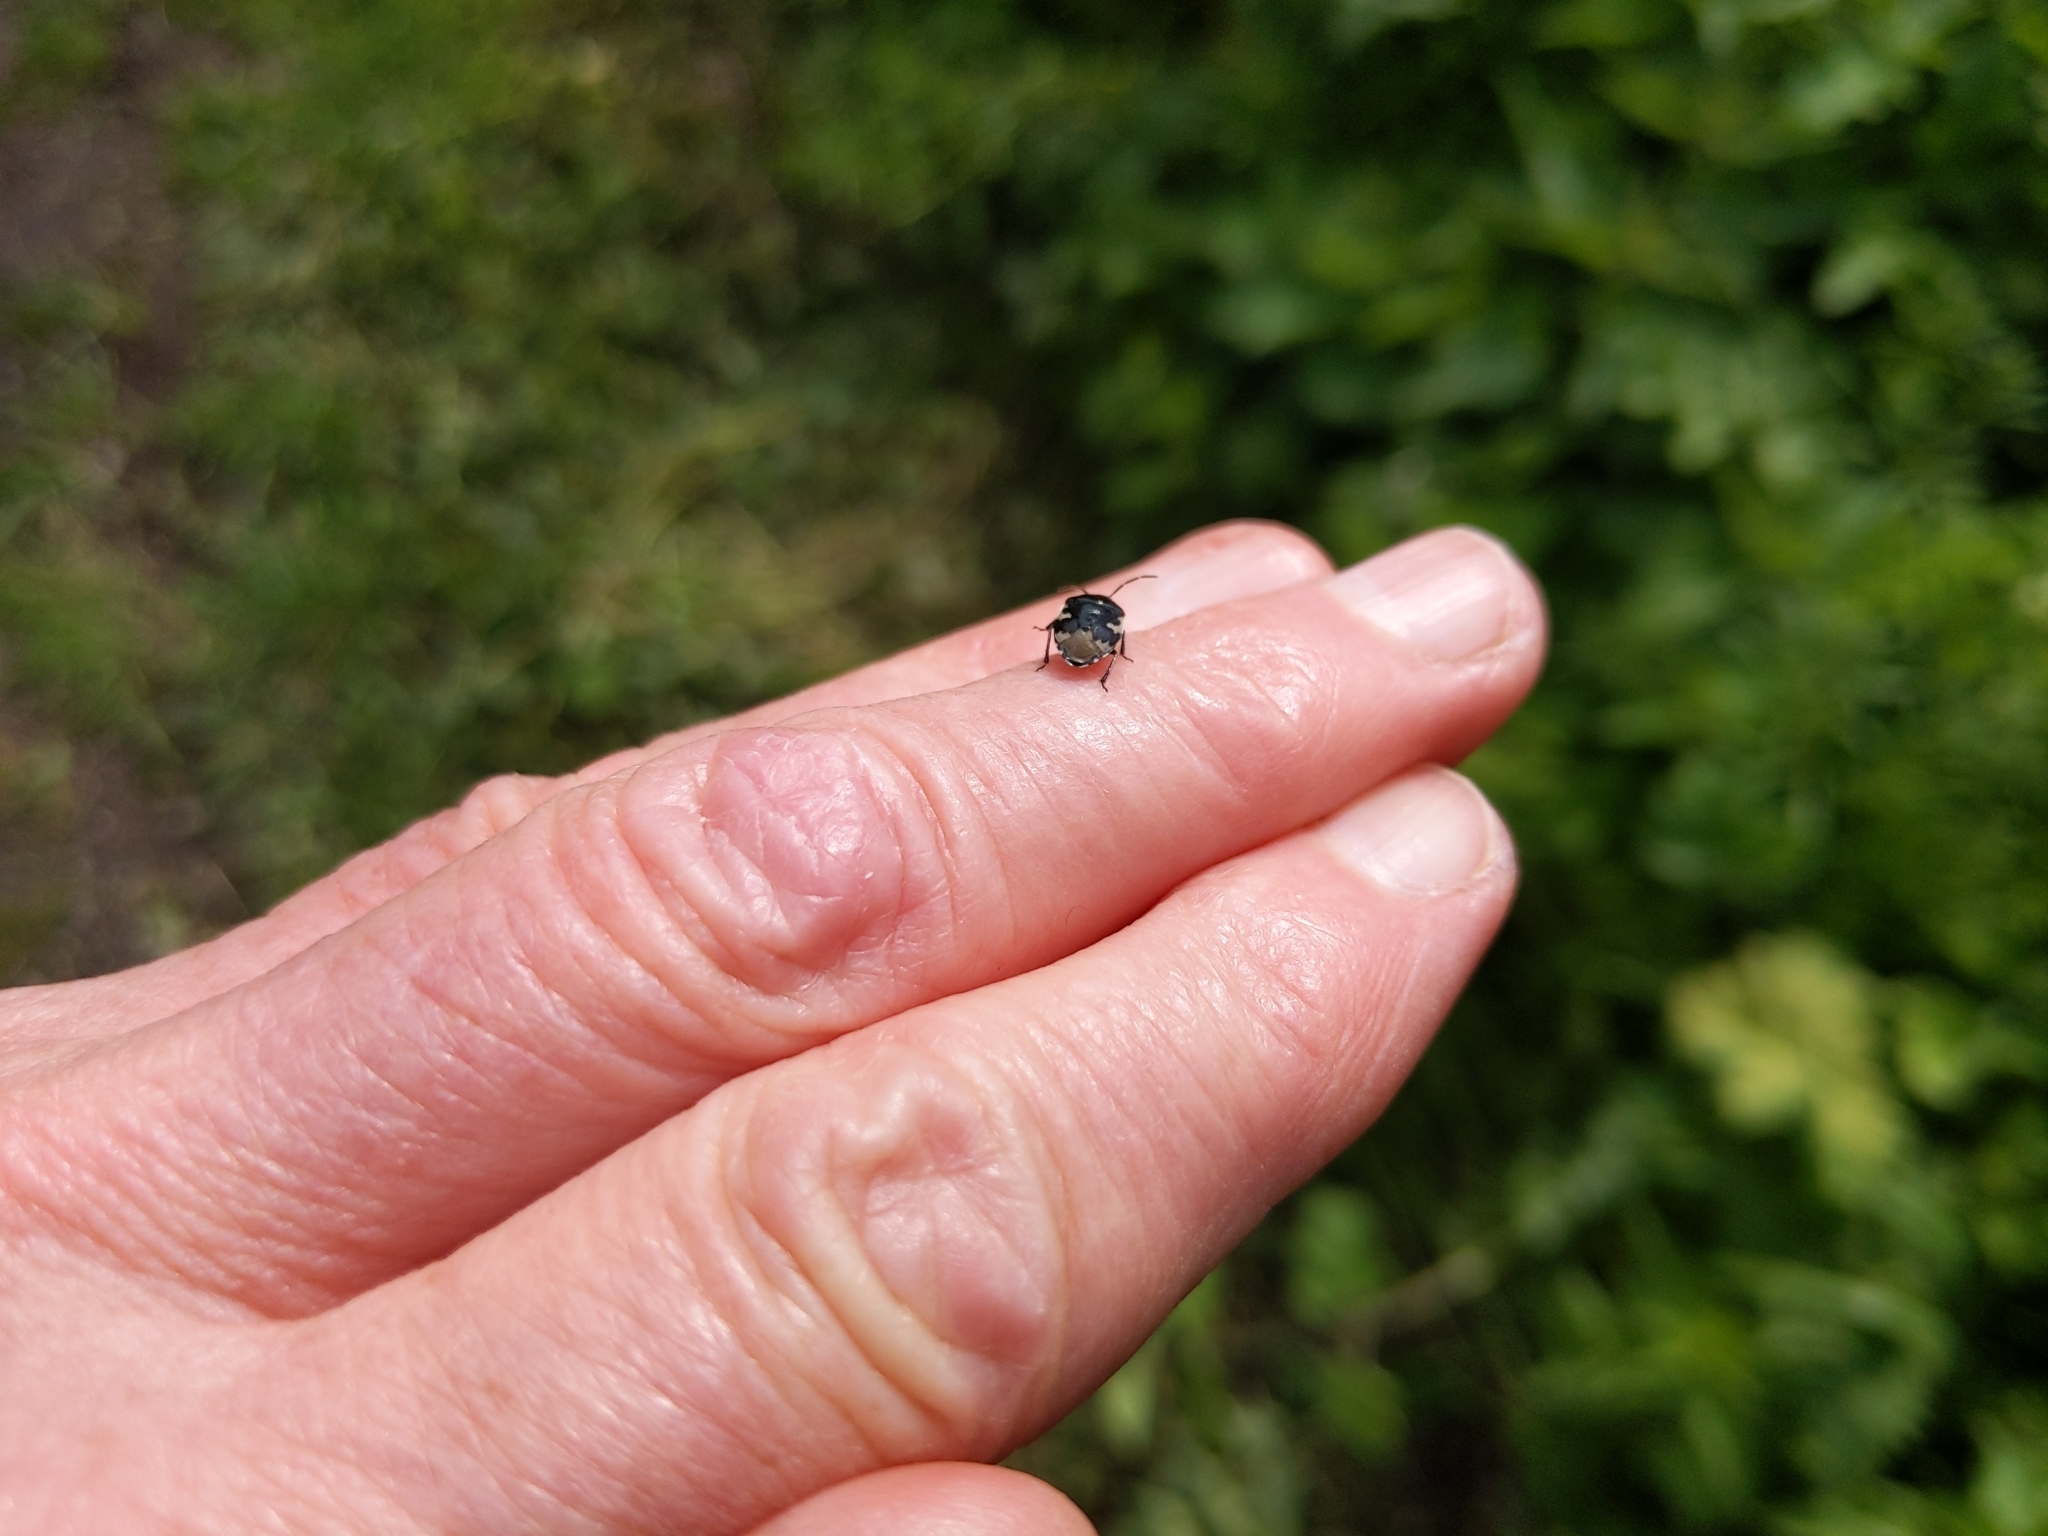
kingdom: Animalia
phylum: Arthropoda
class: Insecta
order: Hemiptera
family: Cydnidae
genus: Tritomegas
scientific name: Tritomegas bicolor
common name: Pied shieldbug
